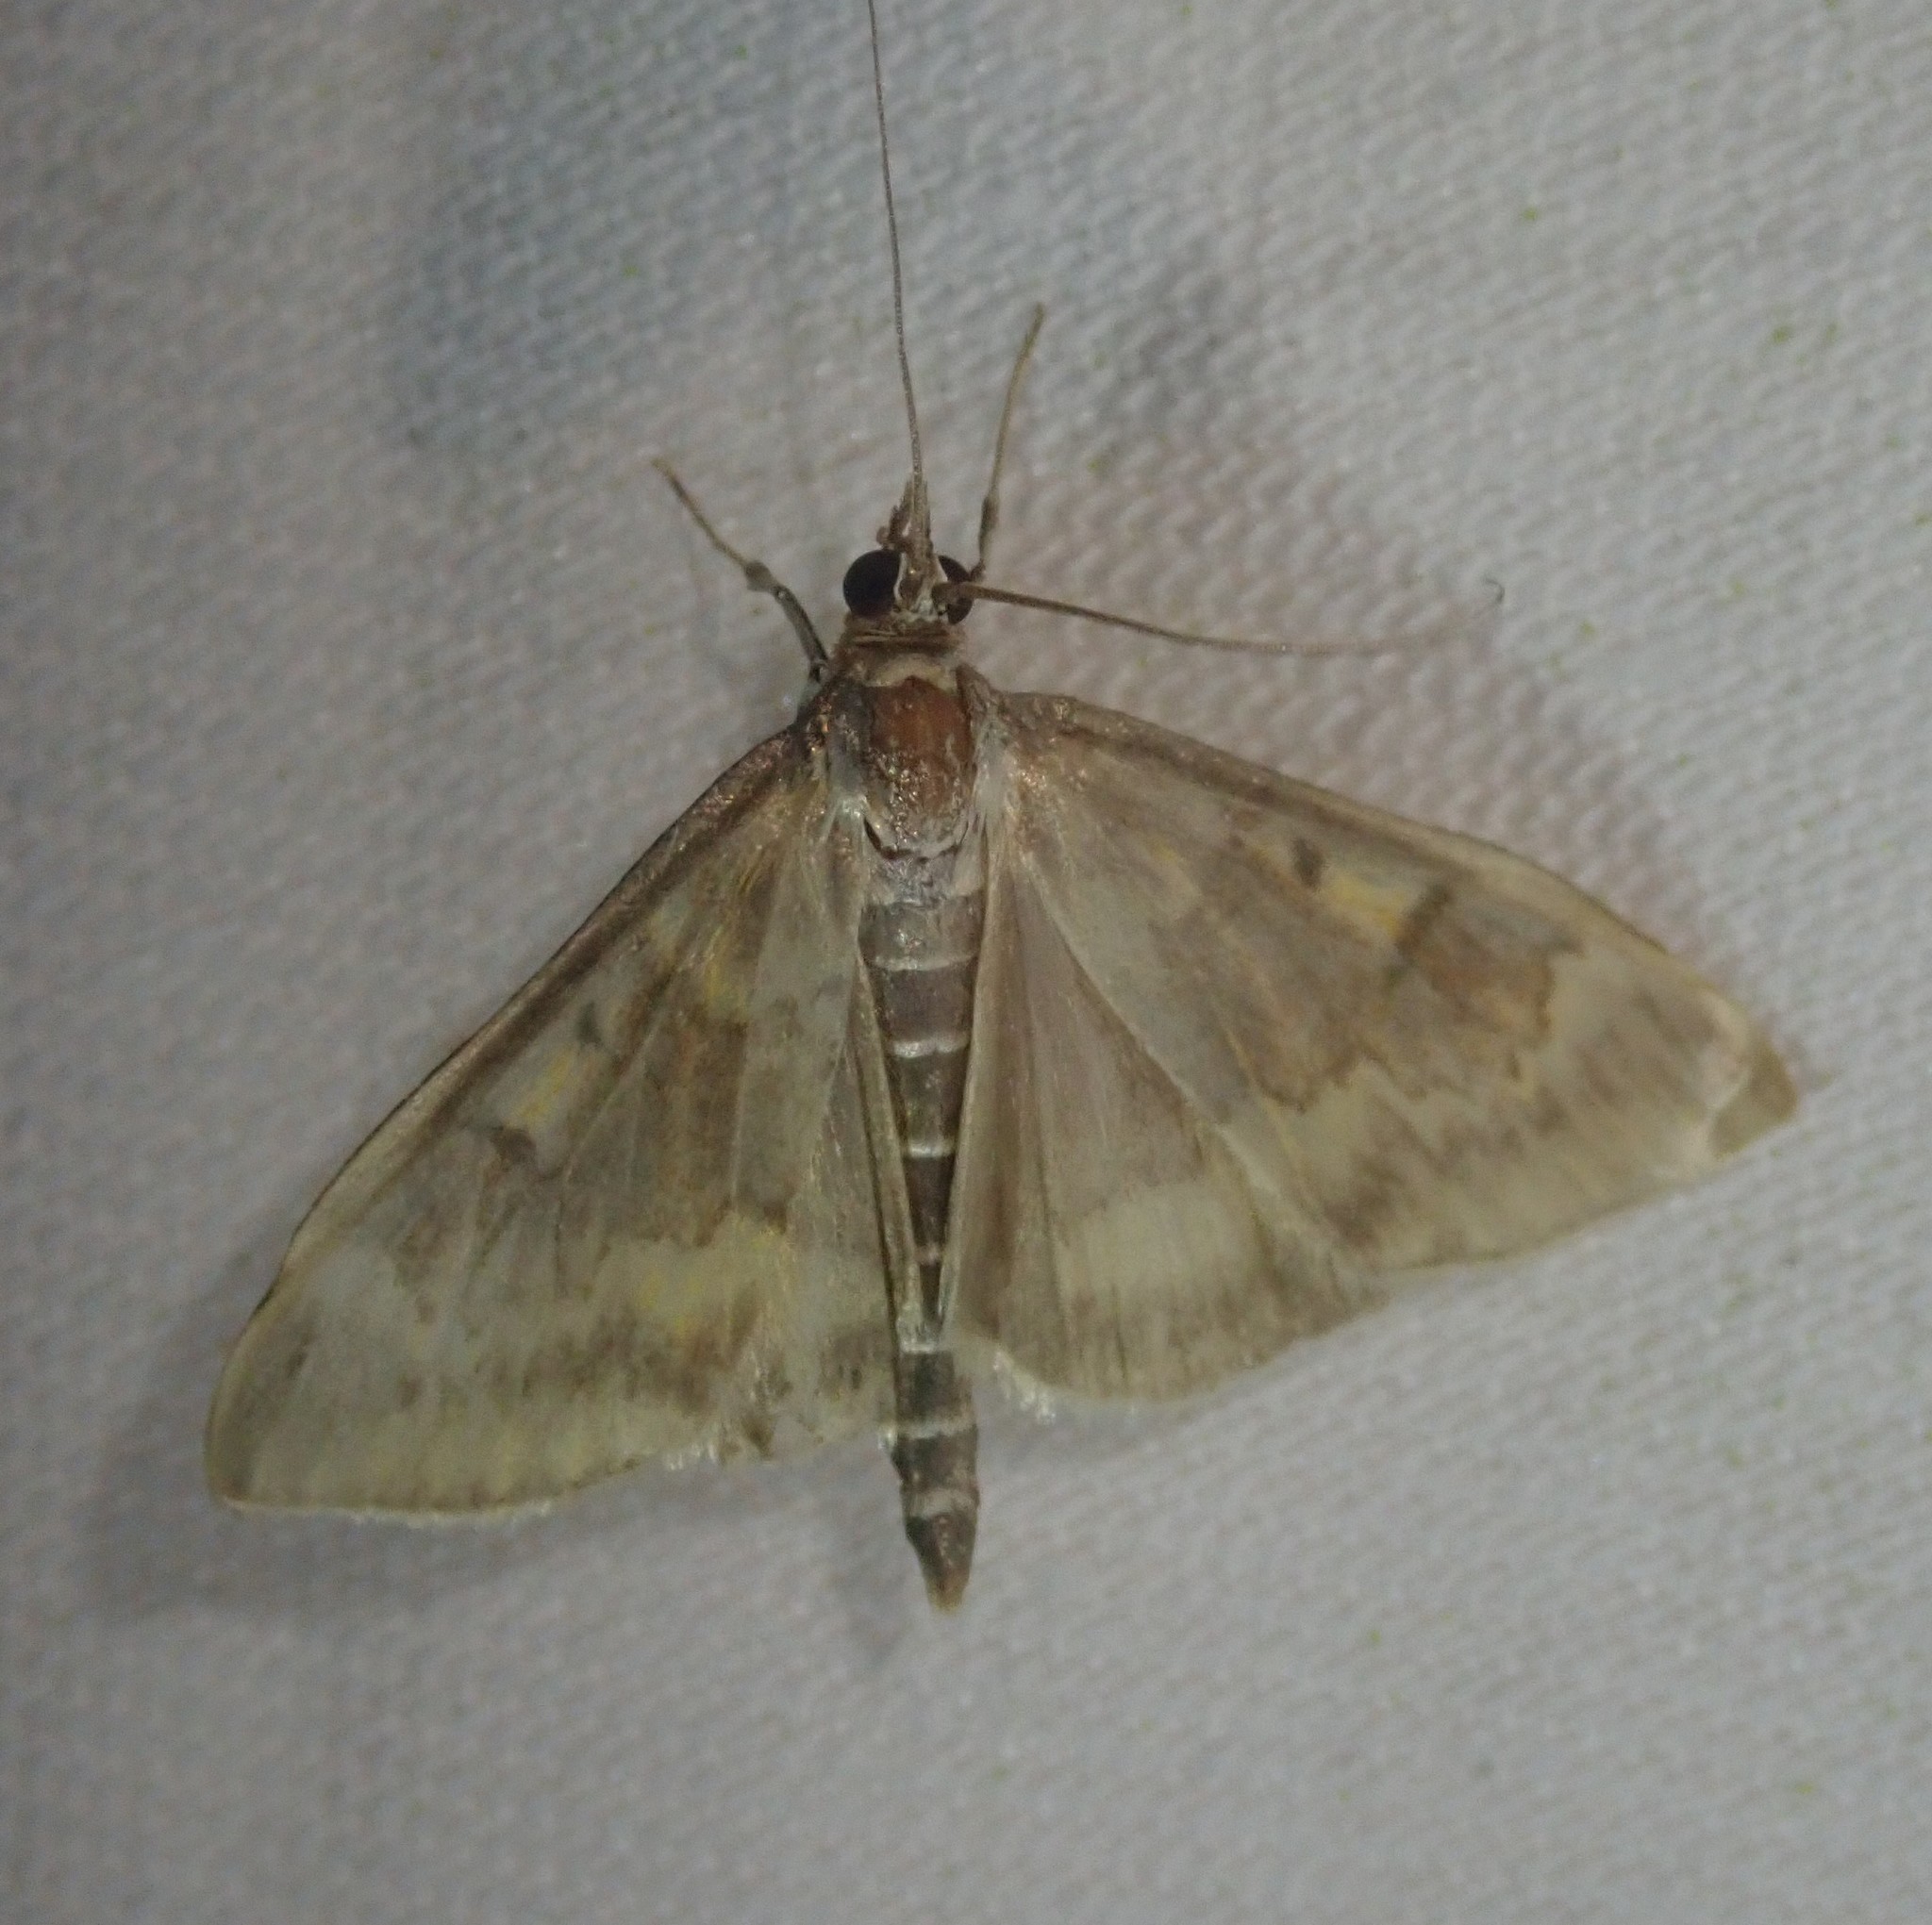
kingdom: Animalia
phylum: Arthropoda
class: Insecta
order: Lepidoptera
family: Crambidae
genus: Ostrinia
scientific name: Ostrinia nubilalis
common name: European corn borer
